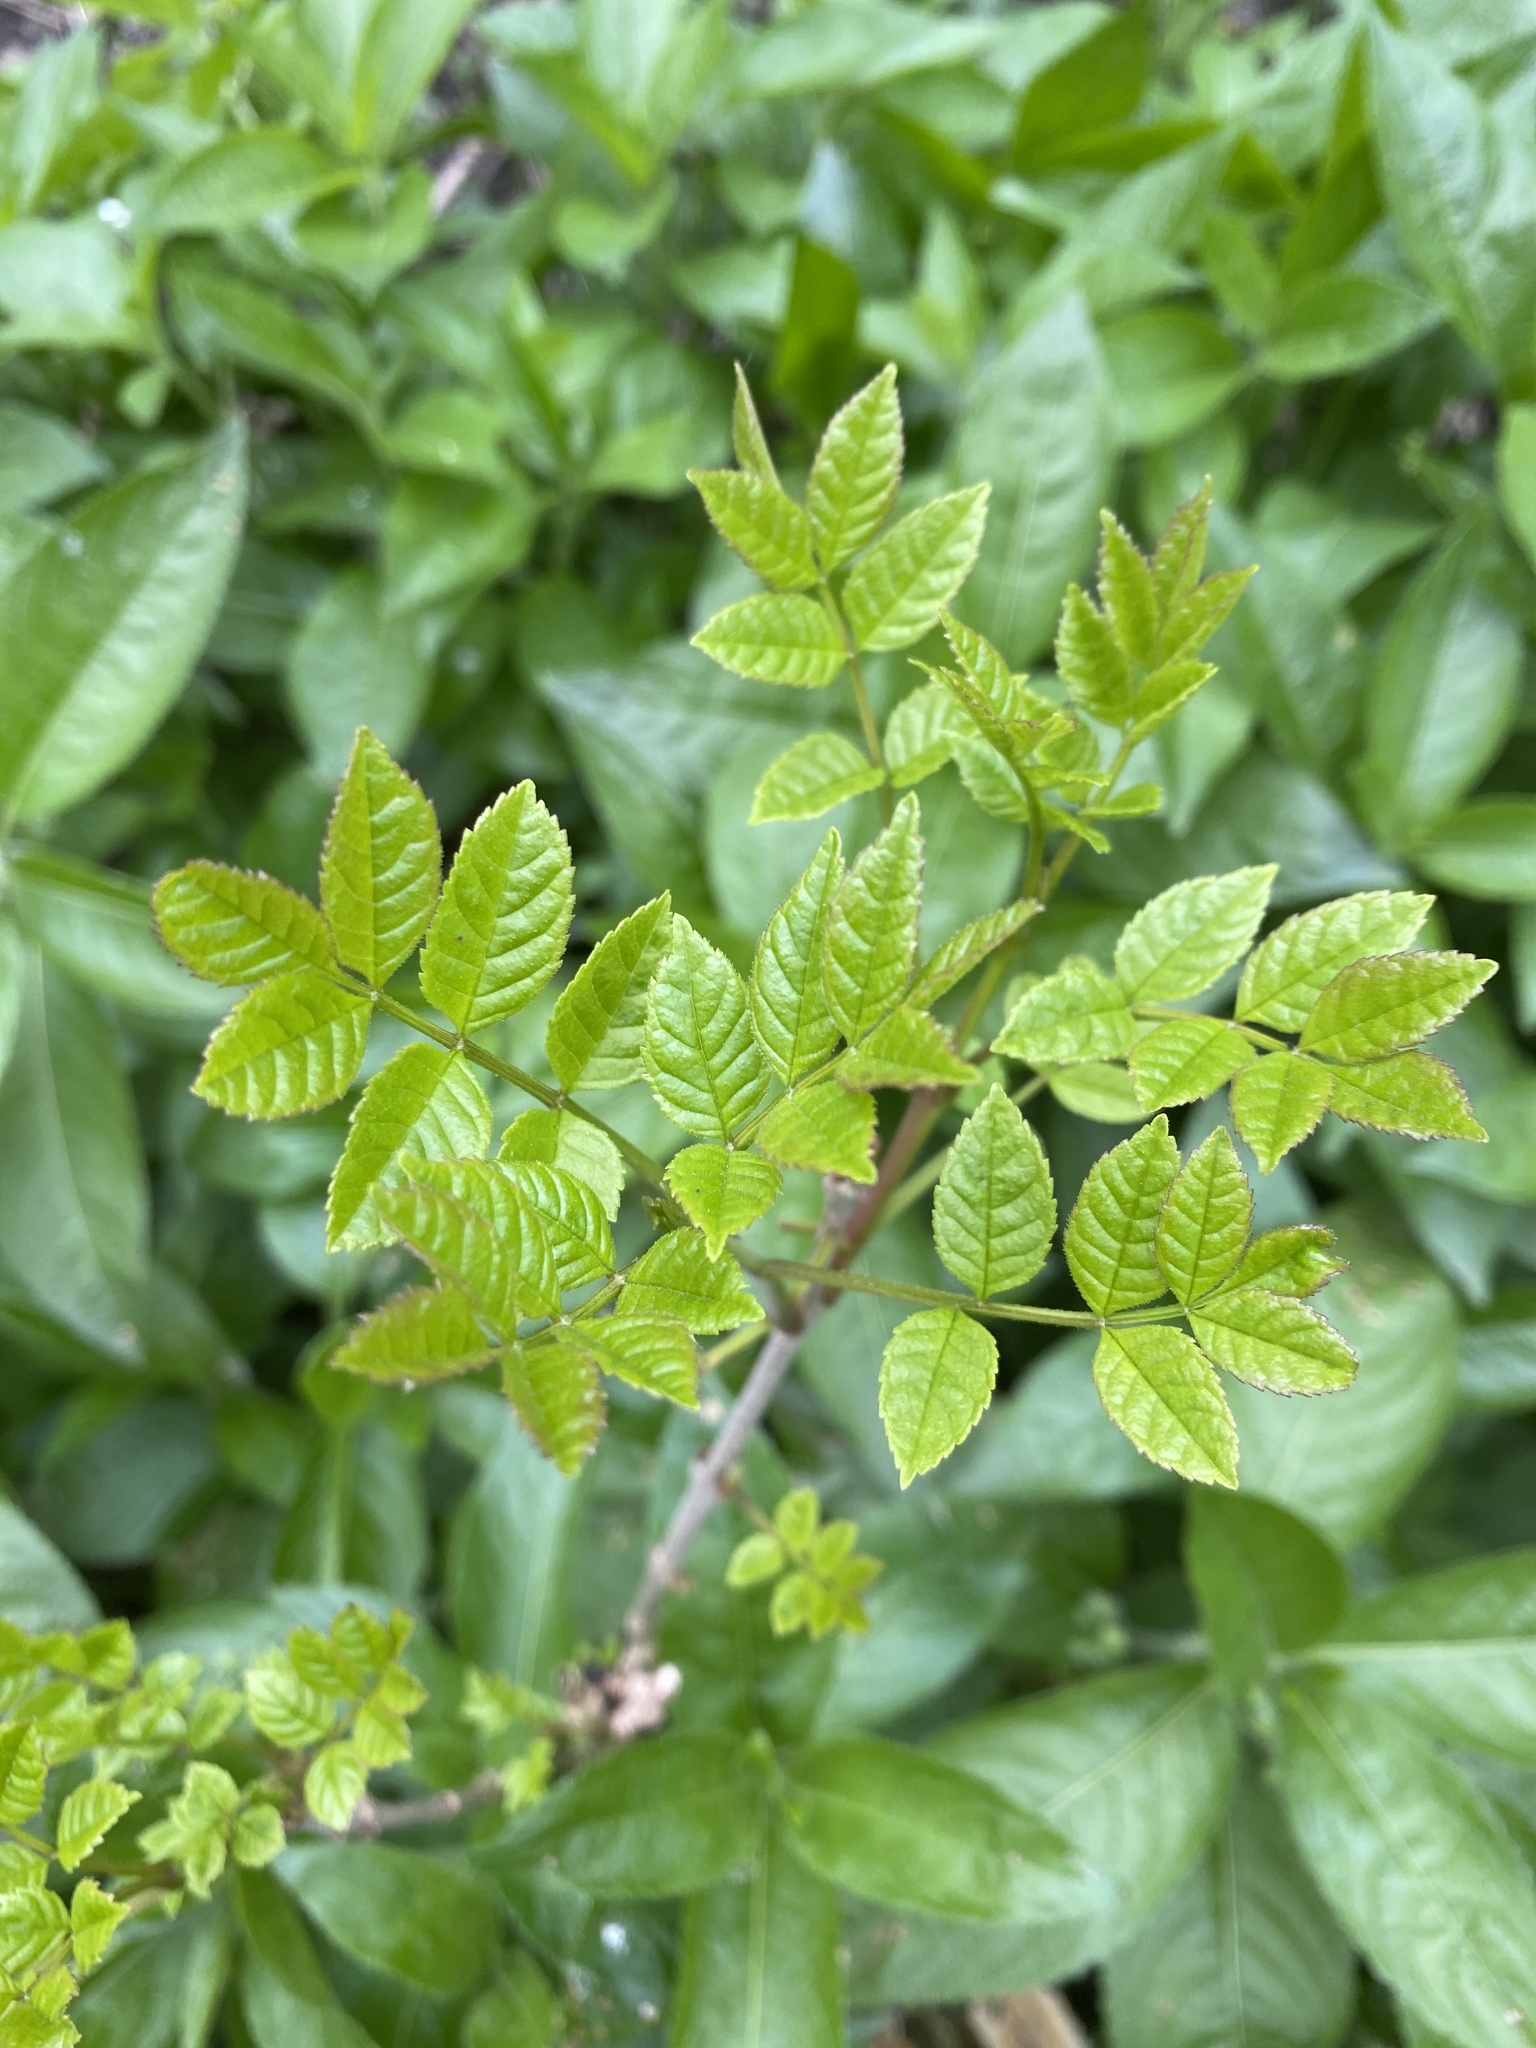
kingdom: Plantae
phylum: Tracheophyta
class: Magnoliopsida
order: Lamiales
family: Oleaceae
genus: Fraxinus
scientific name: Fraxinus excelsior
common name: European ash
